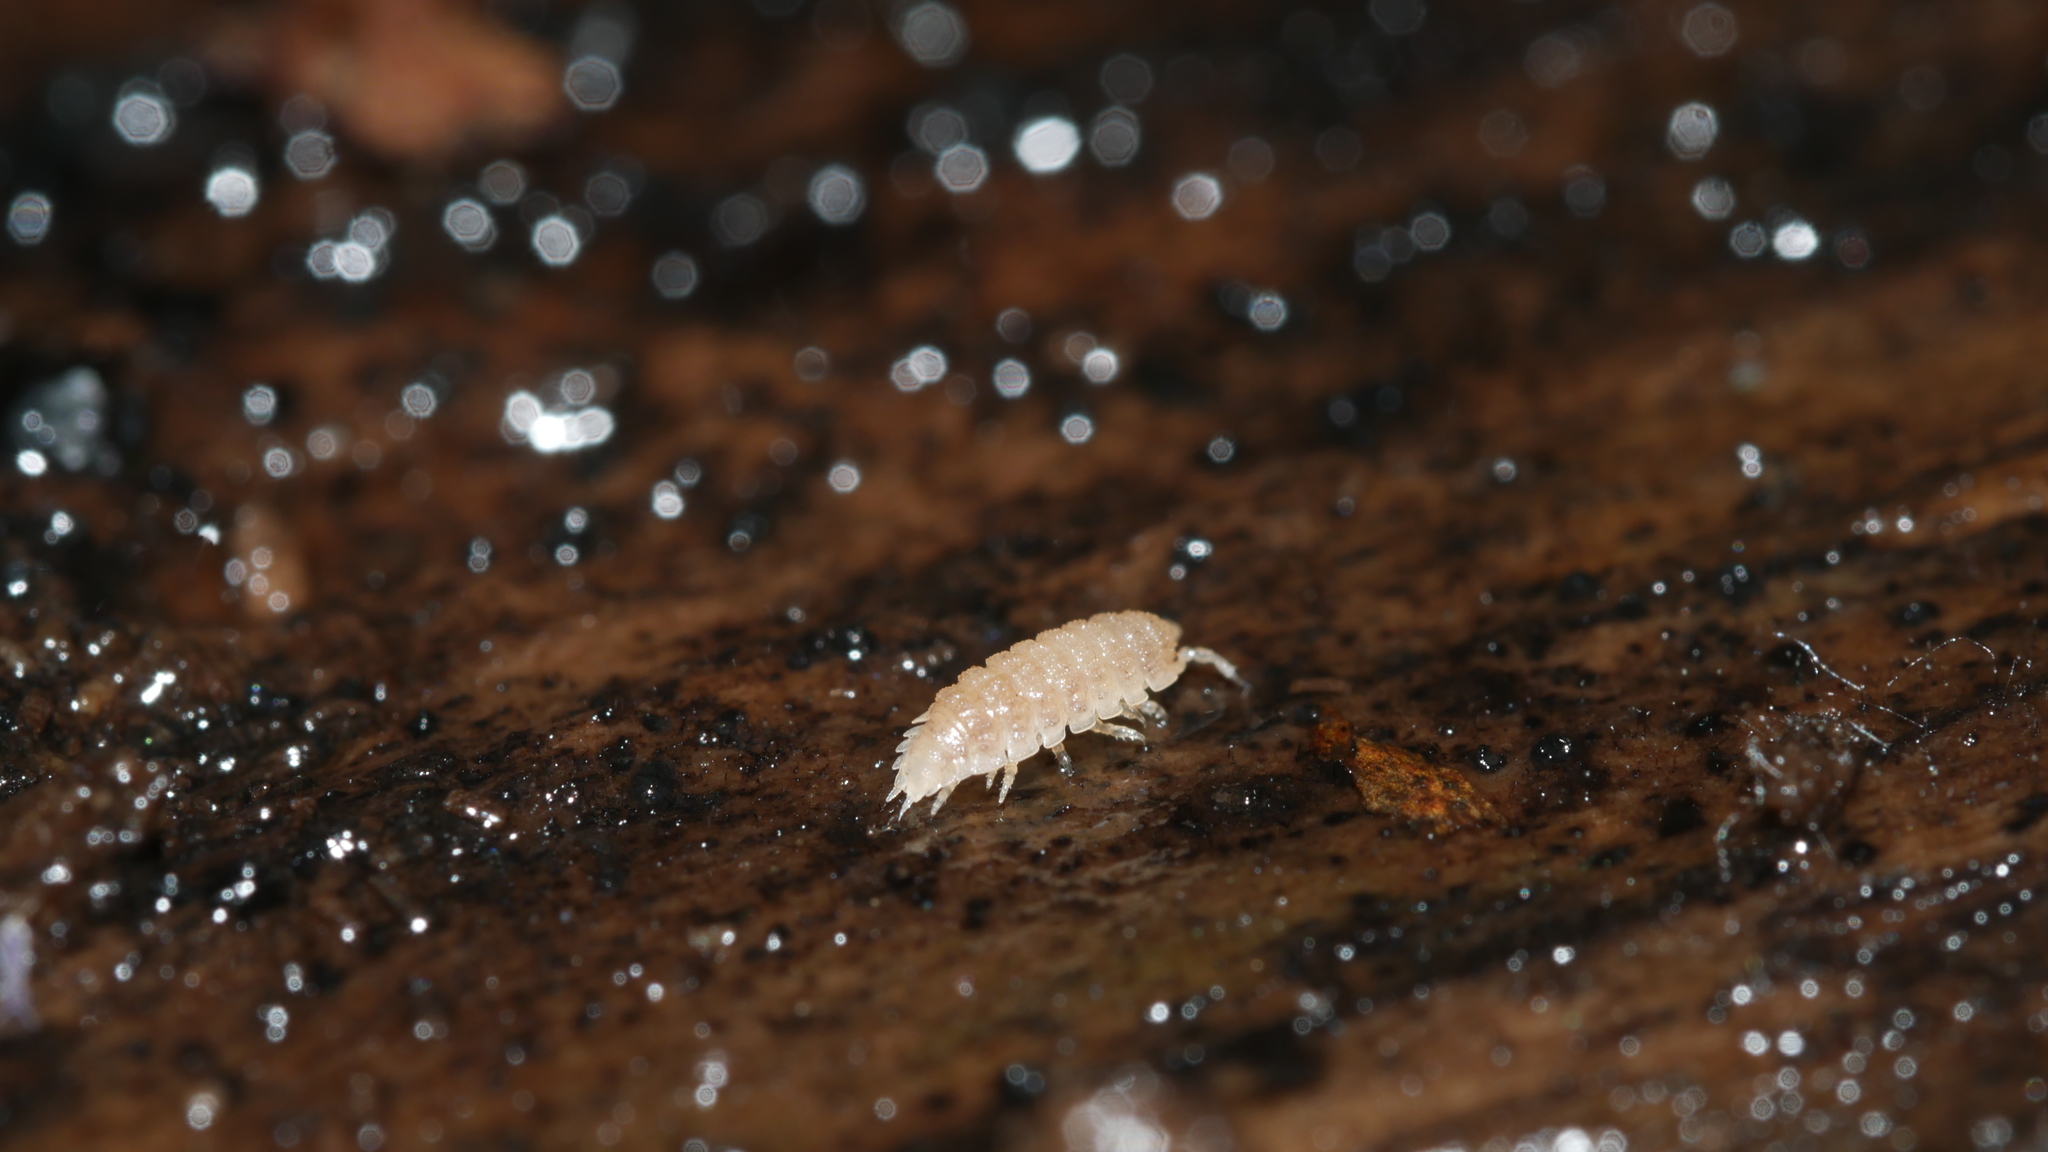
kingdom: Animalia
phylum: Arthropoda
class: Malacostraca
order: Isopoda
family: Trichoniscidae
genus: Haplophthalmus
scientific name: Haplophthalmus danicus
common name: Pillbug
